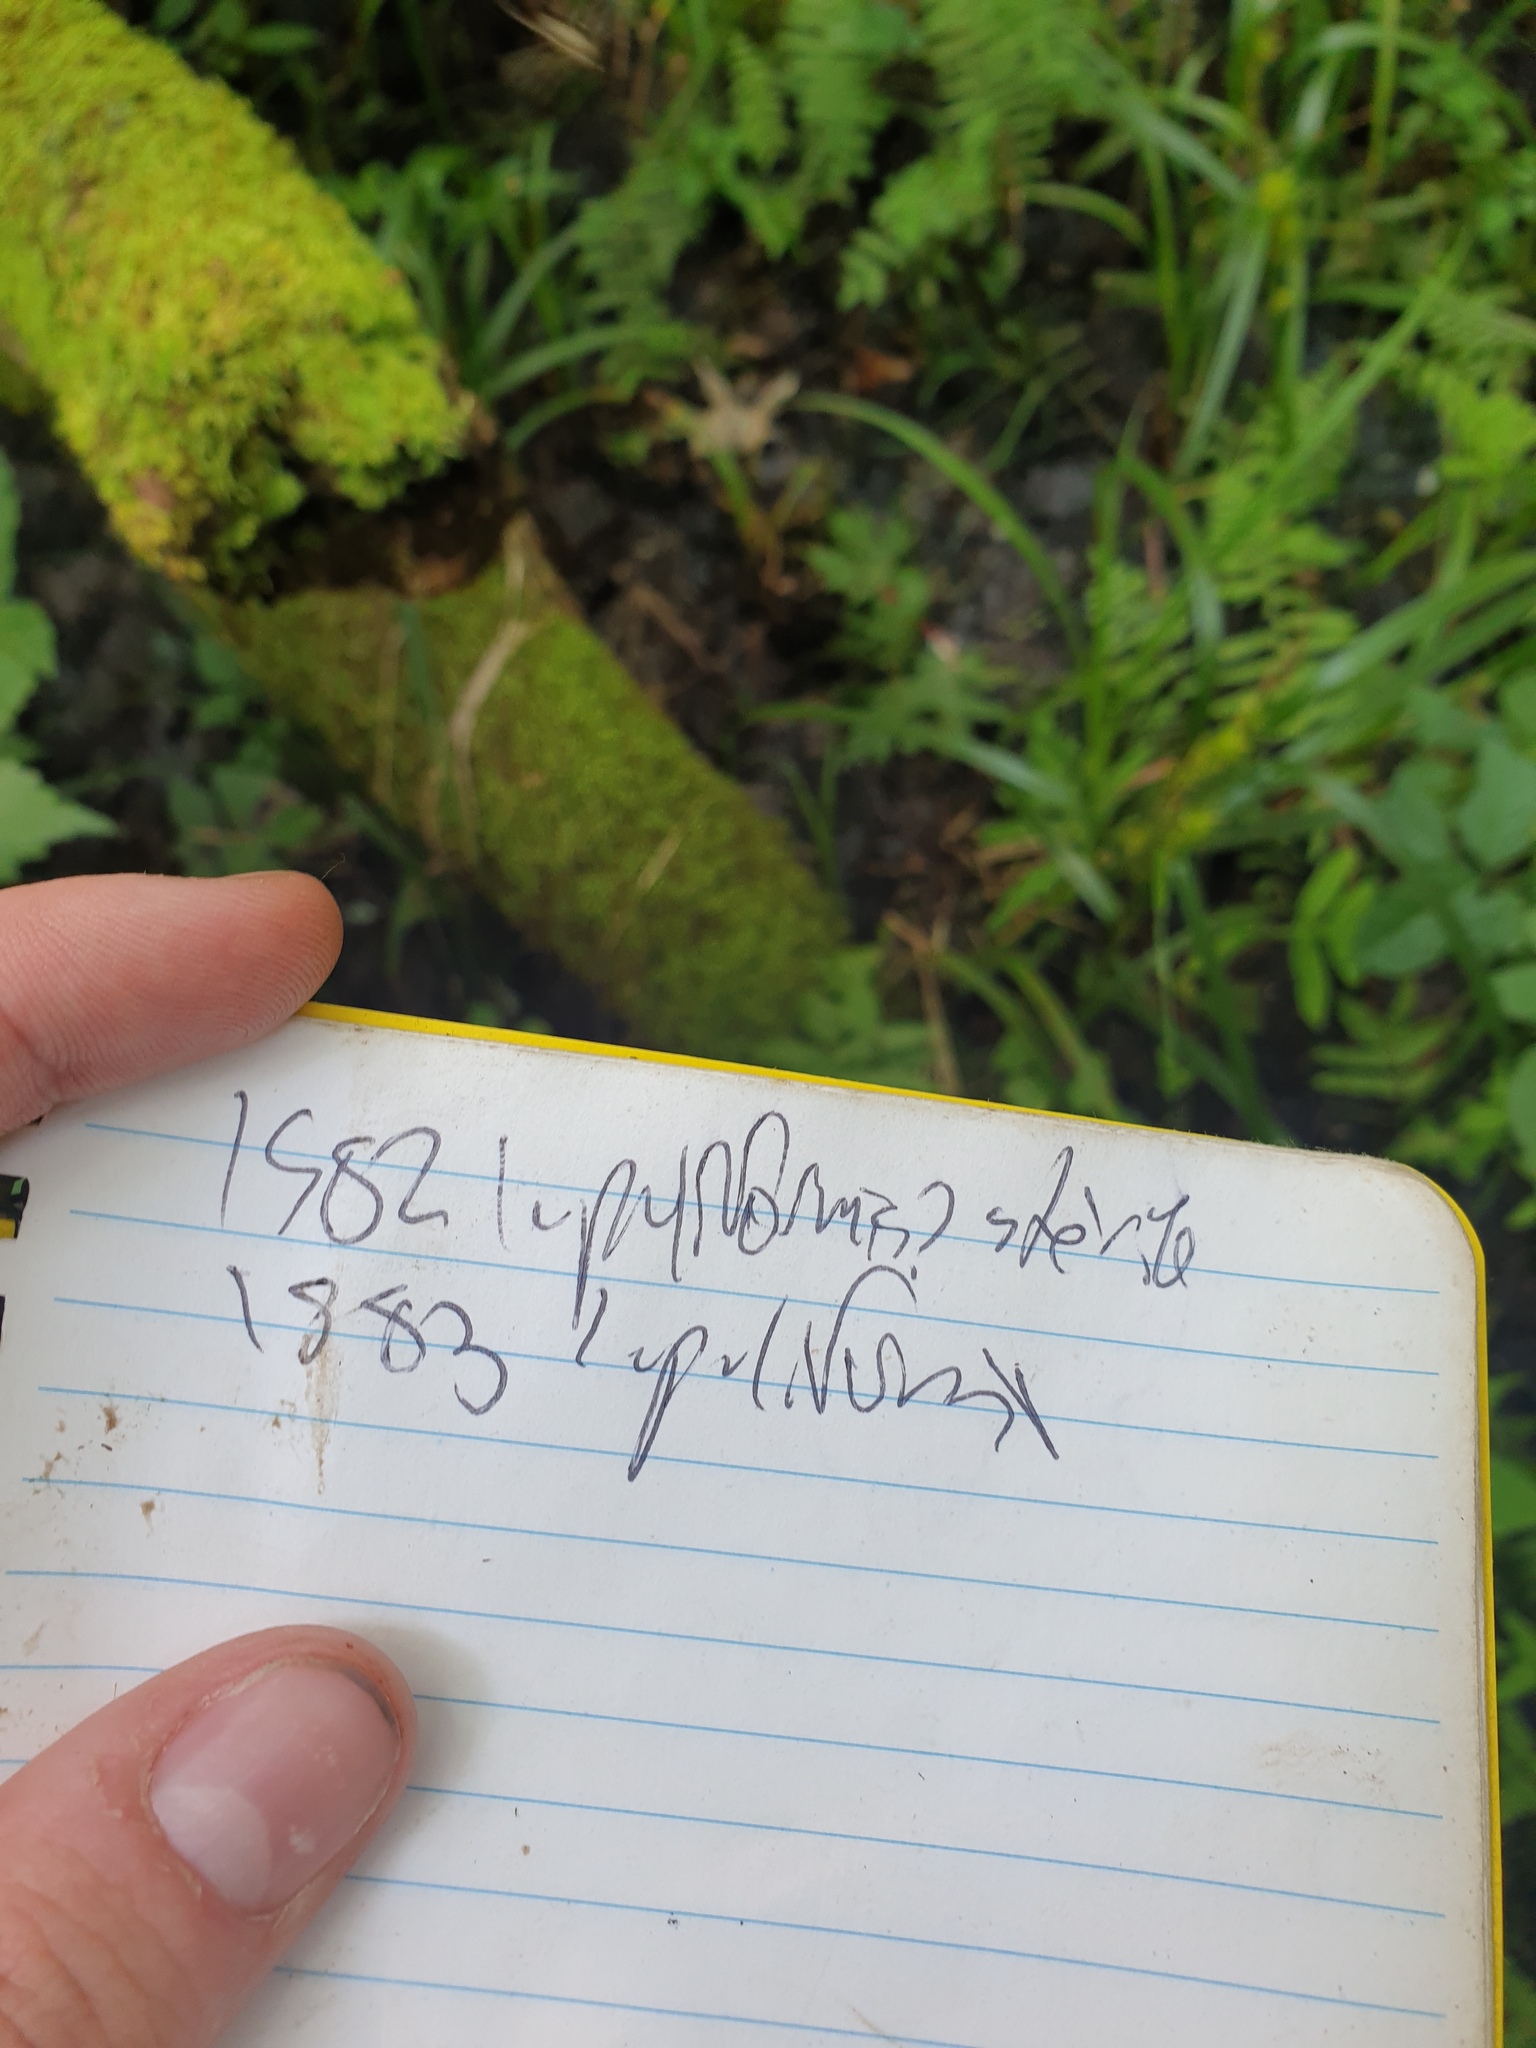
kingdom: Plantae
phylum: Tracheophyta
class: Liliopsida
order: Poales
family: Cyperaceae
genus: Carex
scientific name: Carex lupuliformis
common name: False hop sedge
